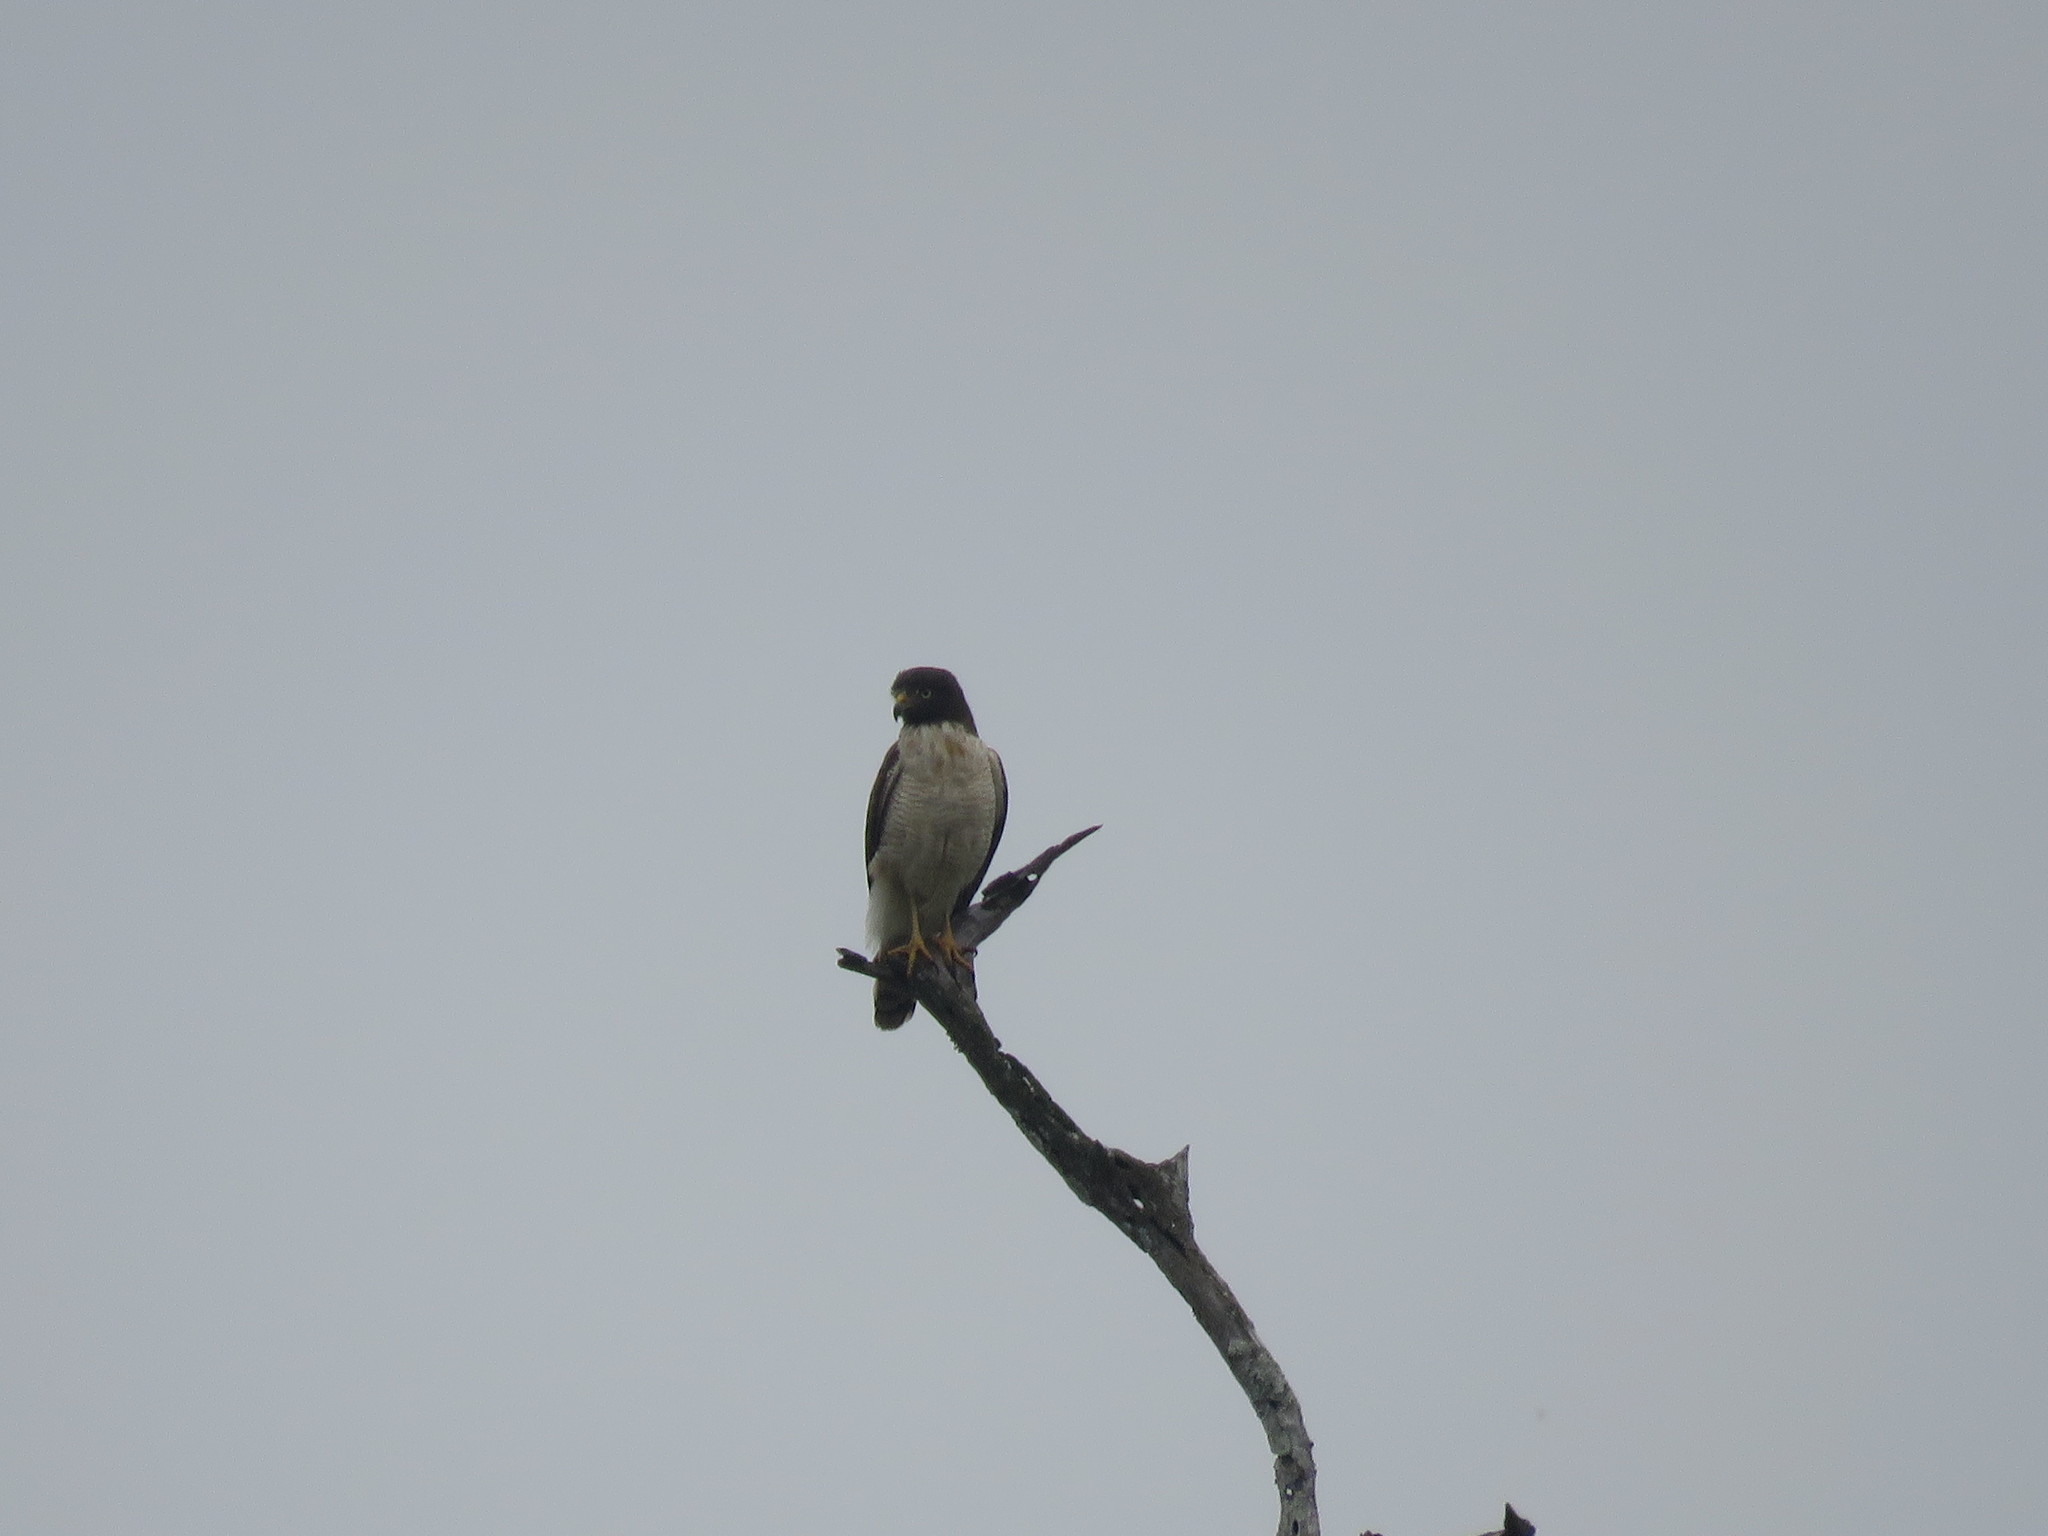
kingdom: Animalia
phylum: Chordata
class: Aves
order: Accipitriformes
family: Accipitridae
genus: Rupornis
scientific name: Rupornis magnirostris
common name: Roadside hawk
